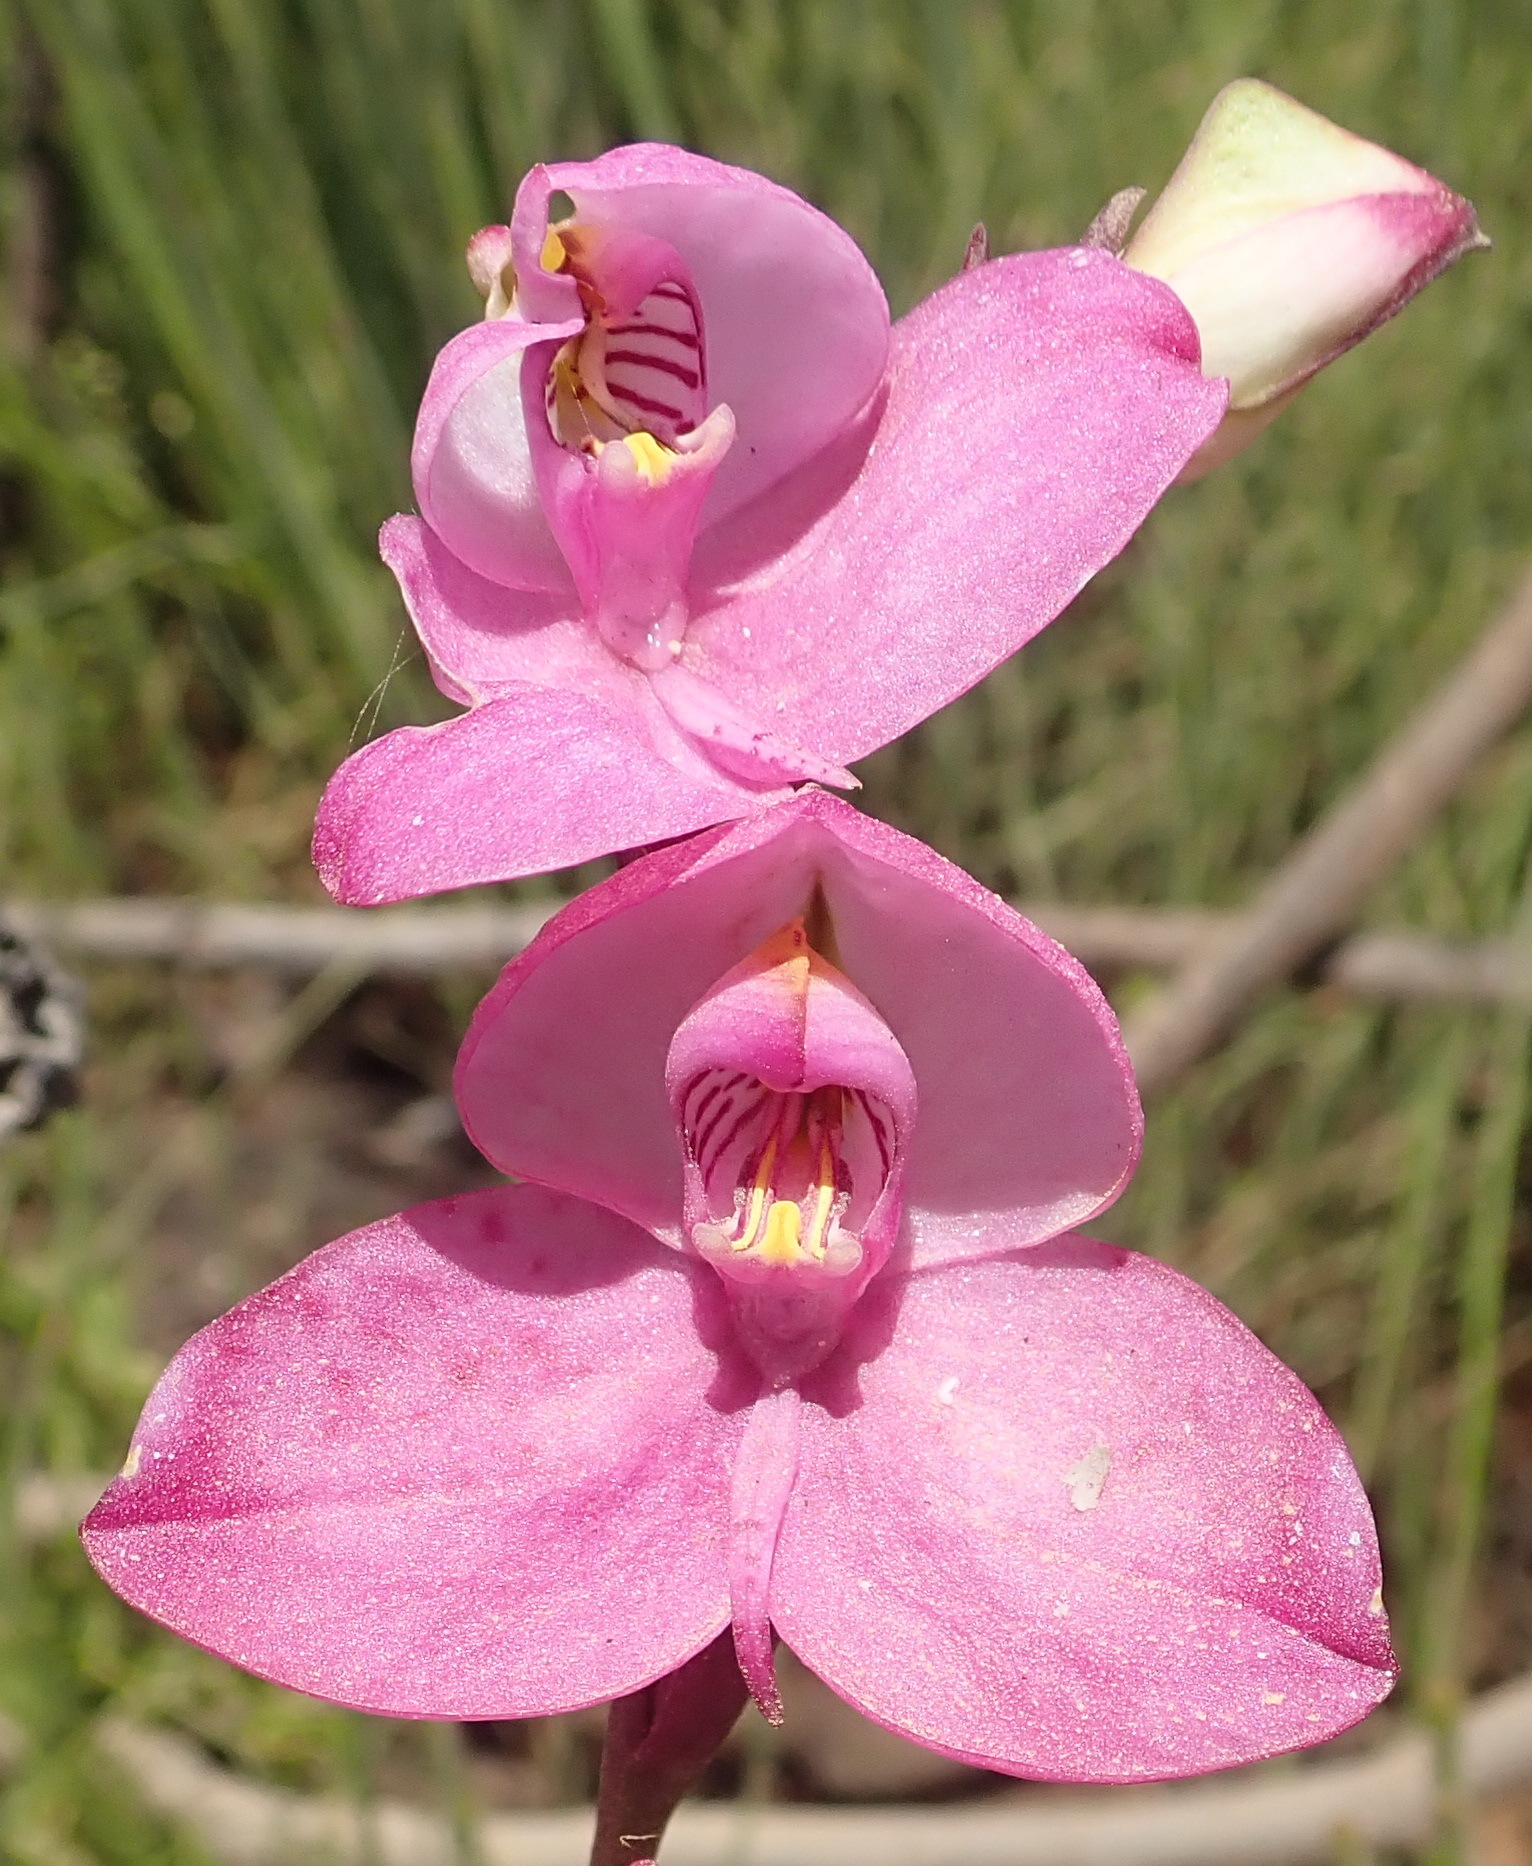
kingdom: Plantae
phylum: Tracheophyta
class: Liliopsida
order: Asparagales
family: Orchidaceae
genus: Disa
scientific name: Disa racemosa
